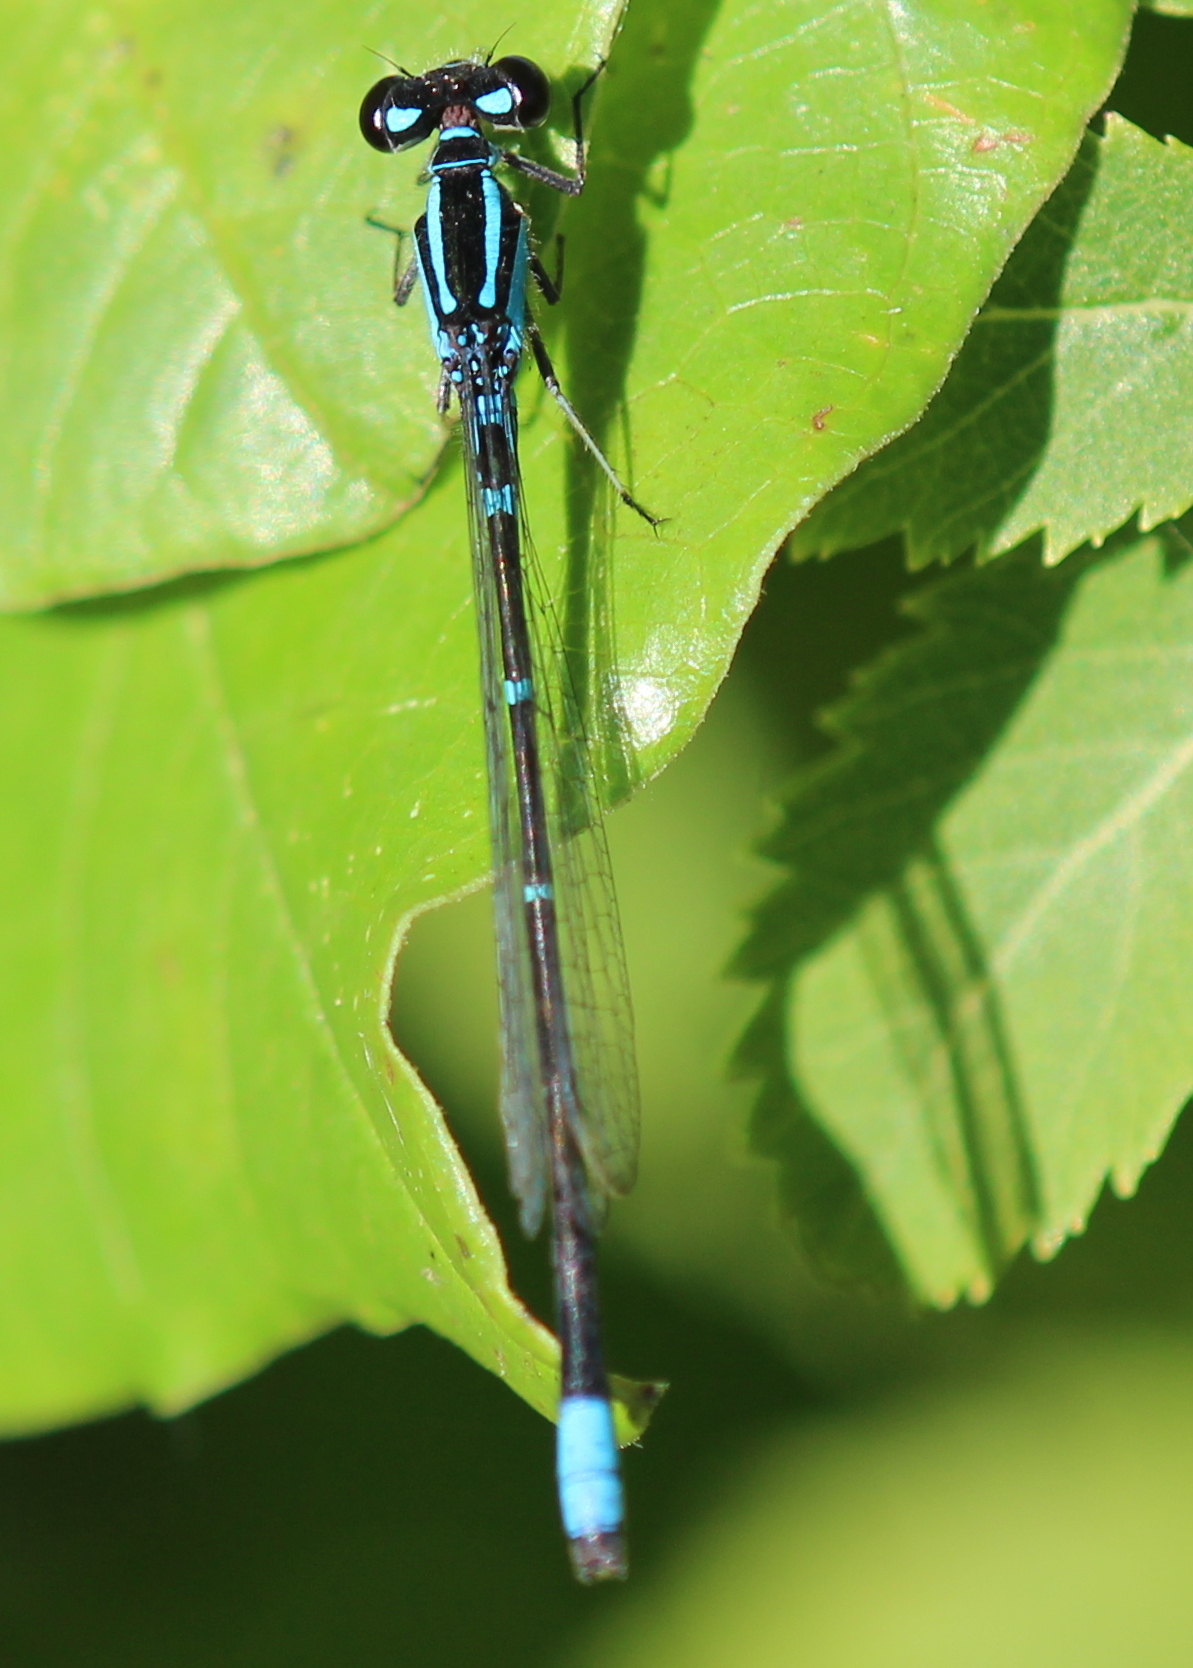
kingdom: Animalia
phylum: Arthropoda
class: Insecta
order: Odonata
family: Coenagrionidae
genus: Enallagma
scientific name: Enallagma geminatum
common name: Skimming bluet
